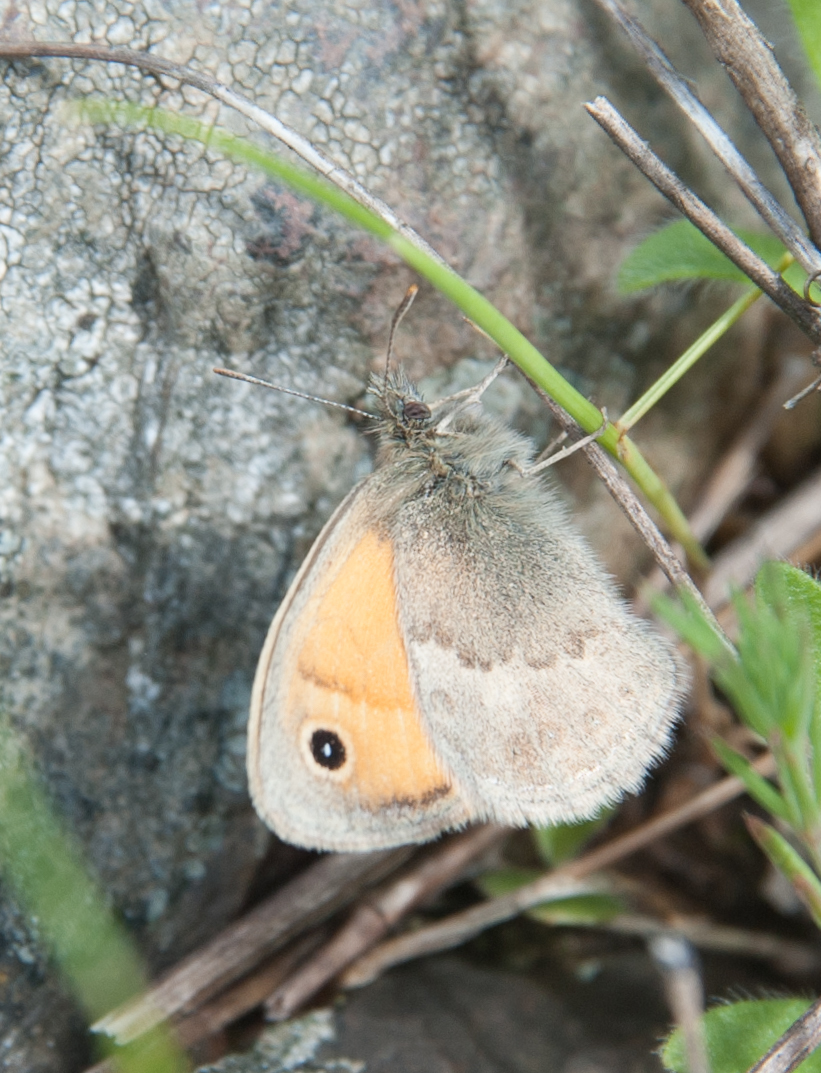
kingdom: Animalia
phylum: Arthropoda
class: Insecta
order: Lepidoptera
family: Nymphalidae
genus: Coenonympha
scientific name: Coenonympha pamphilus
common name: Small heath
